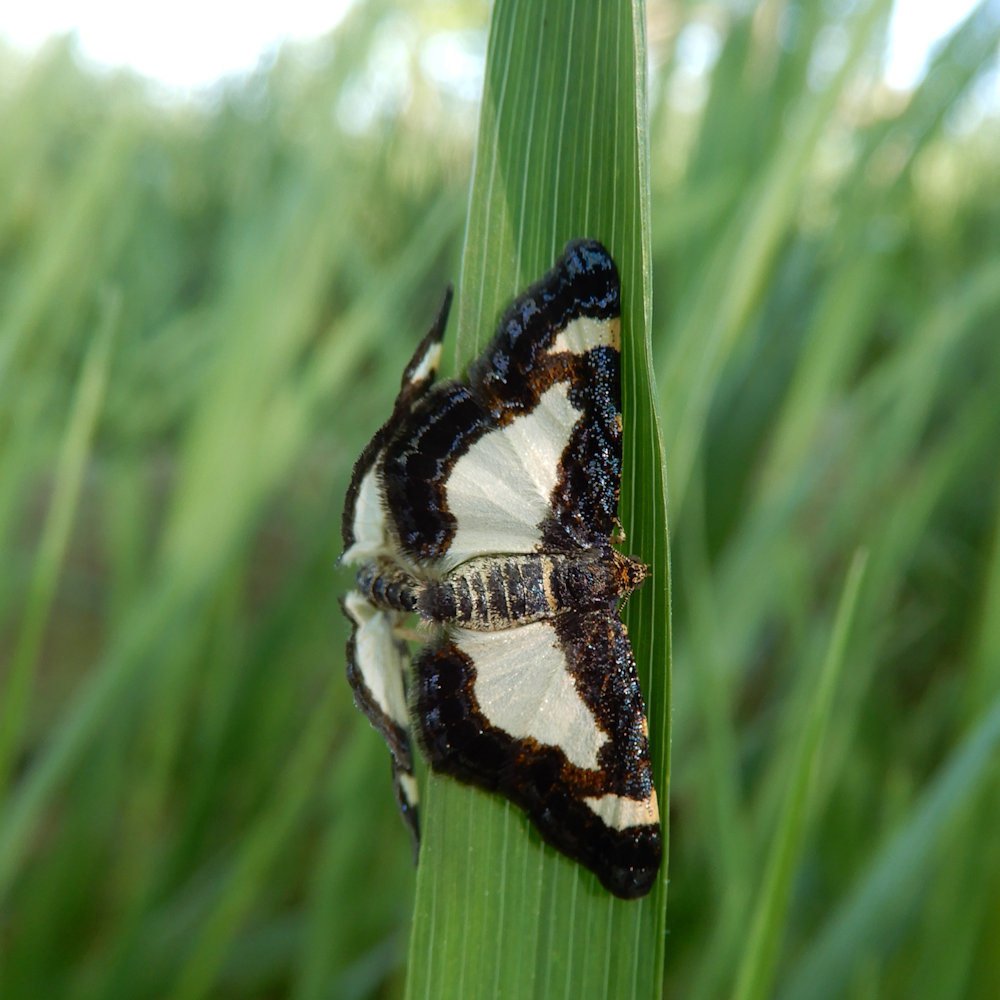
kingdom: Animalia
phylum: Arthropoda
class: Insecta
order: Lepidoptera
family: Geometridae
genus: Heliomata
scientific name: Heliomata cycladata
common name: Common spring moth
